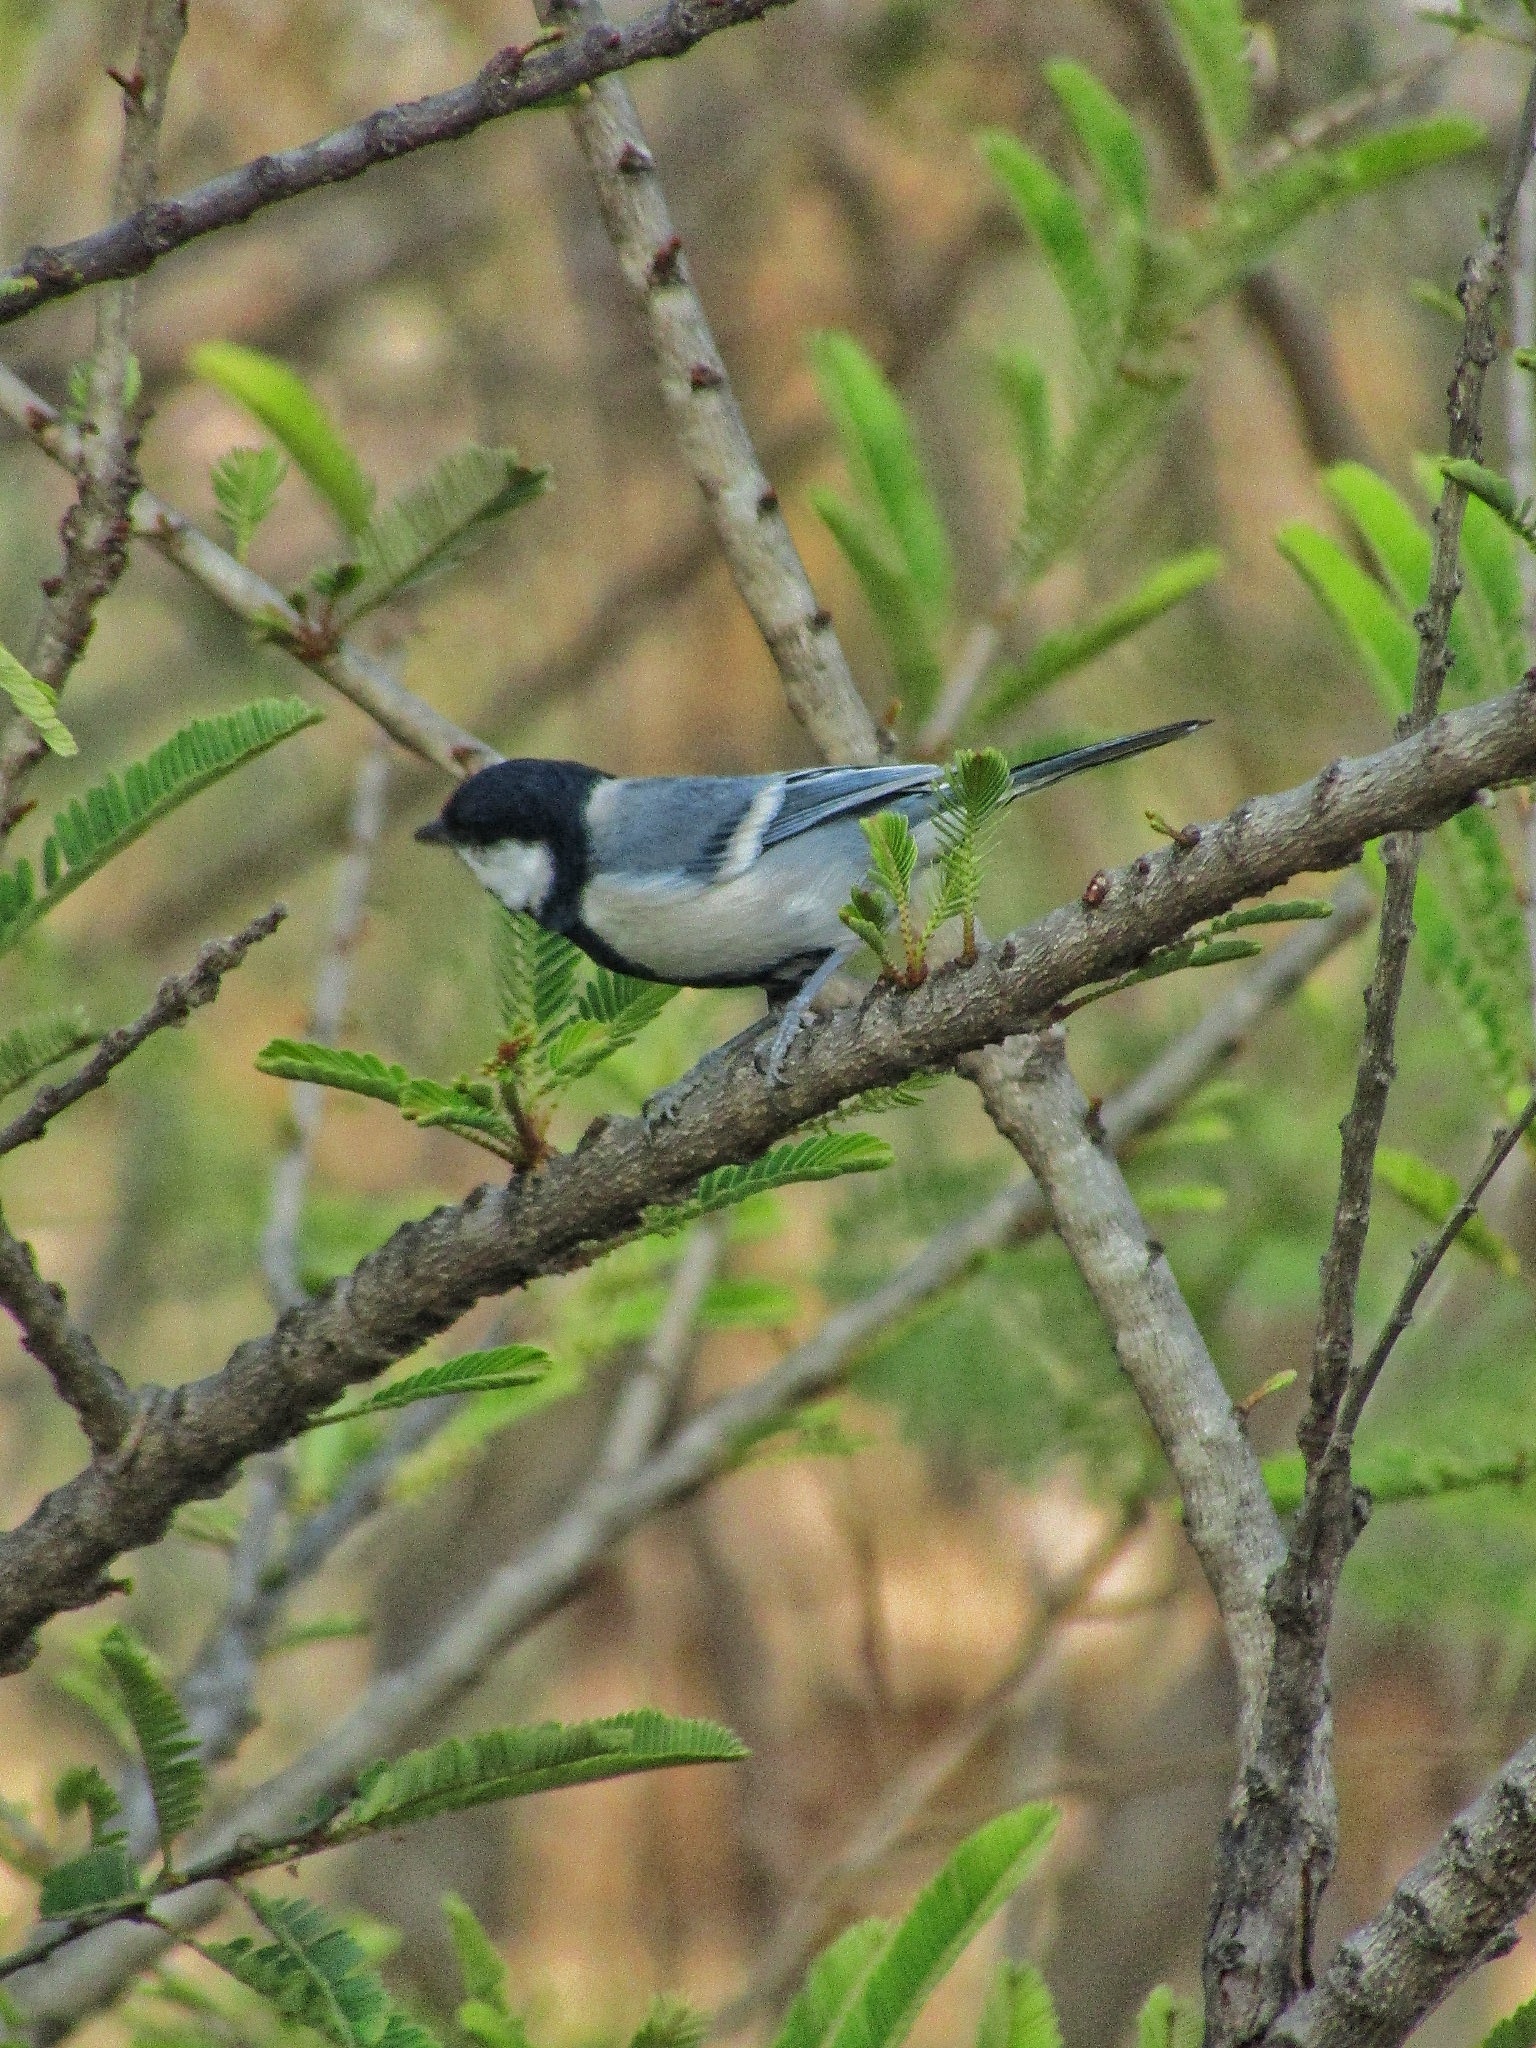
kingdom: Animalia
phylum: Chordata
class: Aves
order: Passeriformes
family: Paridae
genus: Parus
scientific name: Parus cinereus
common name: Cinereous tit
